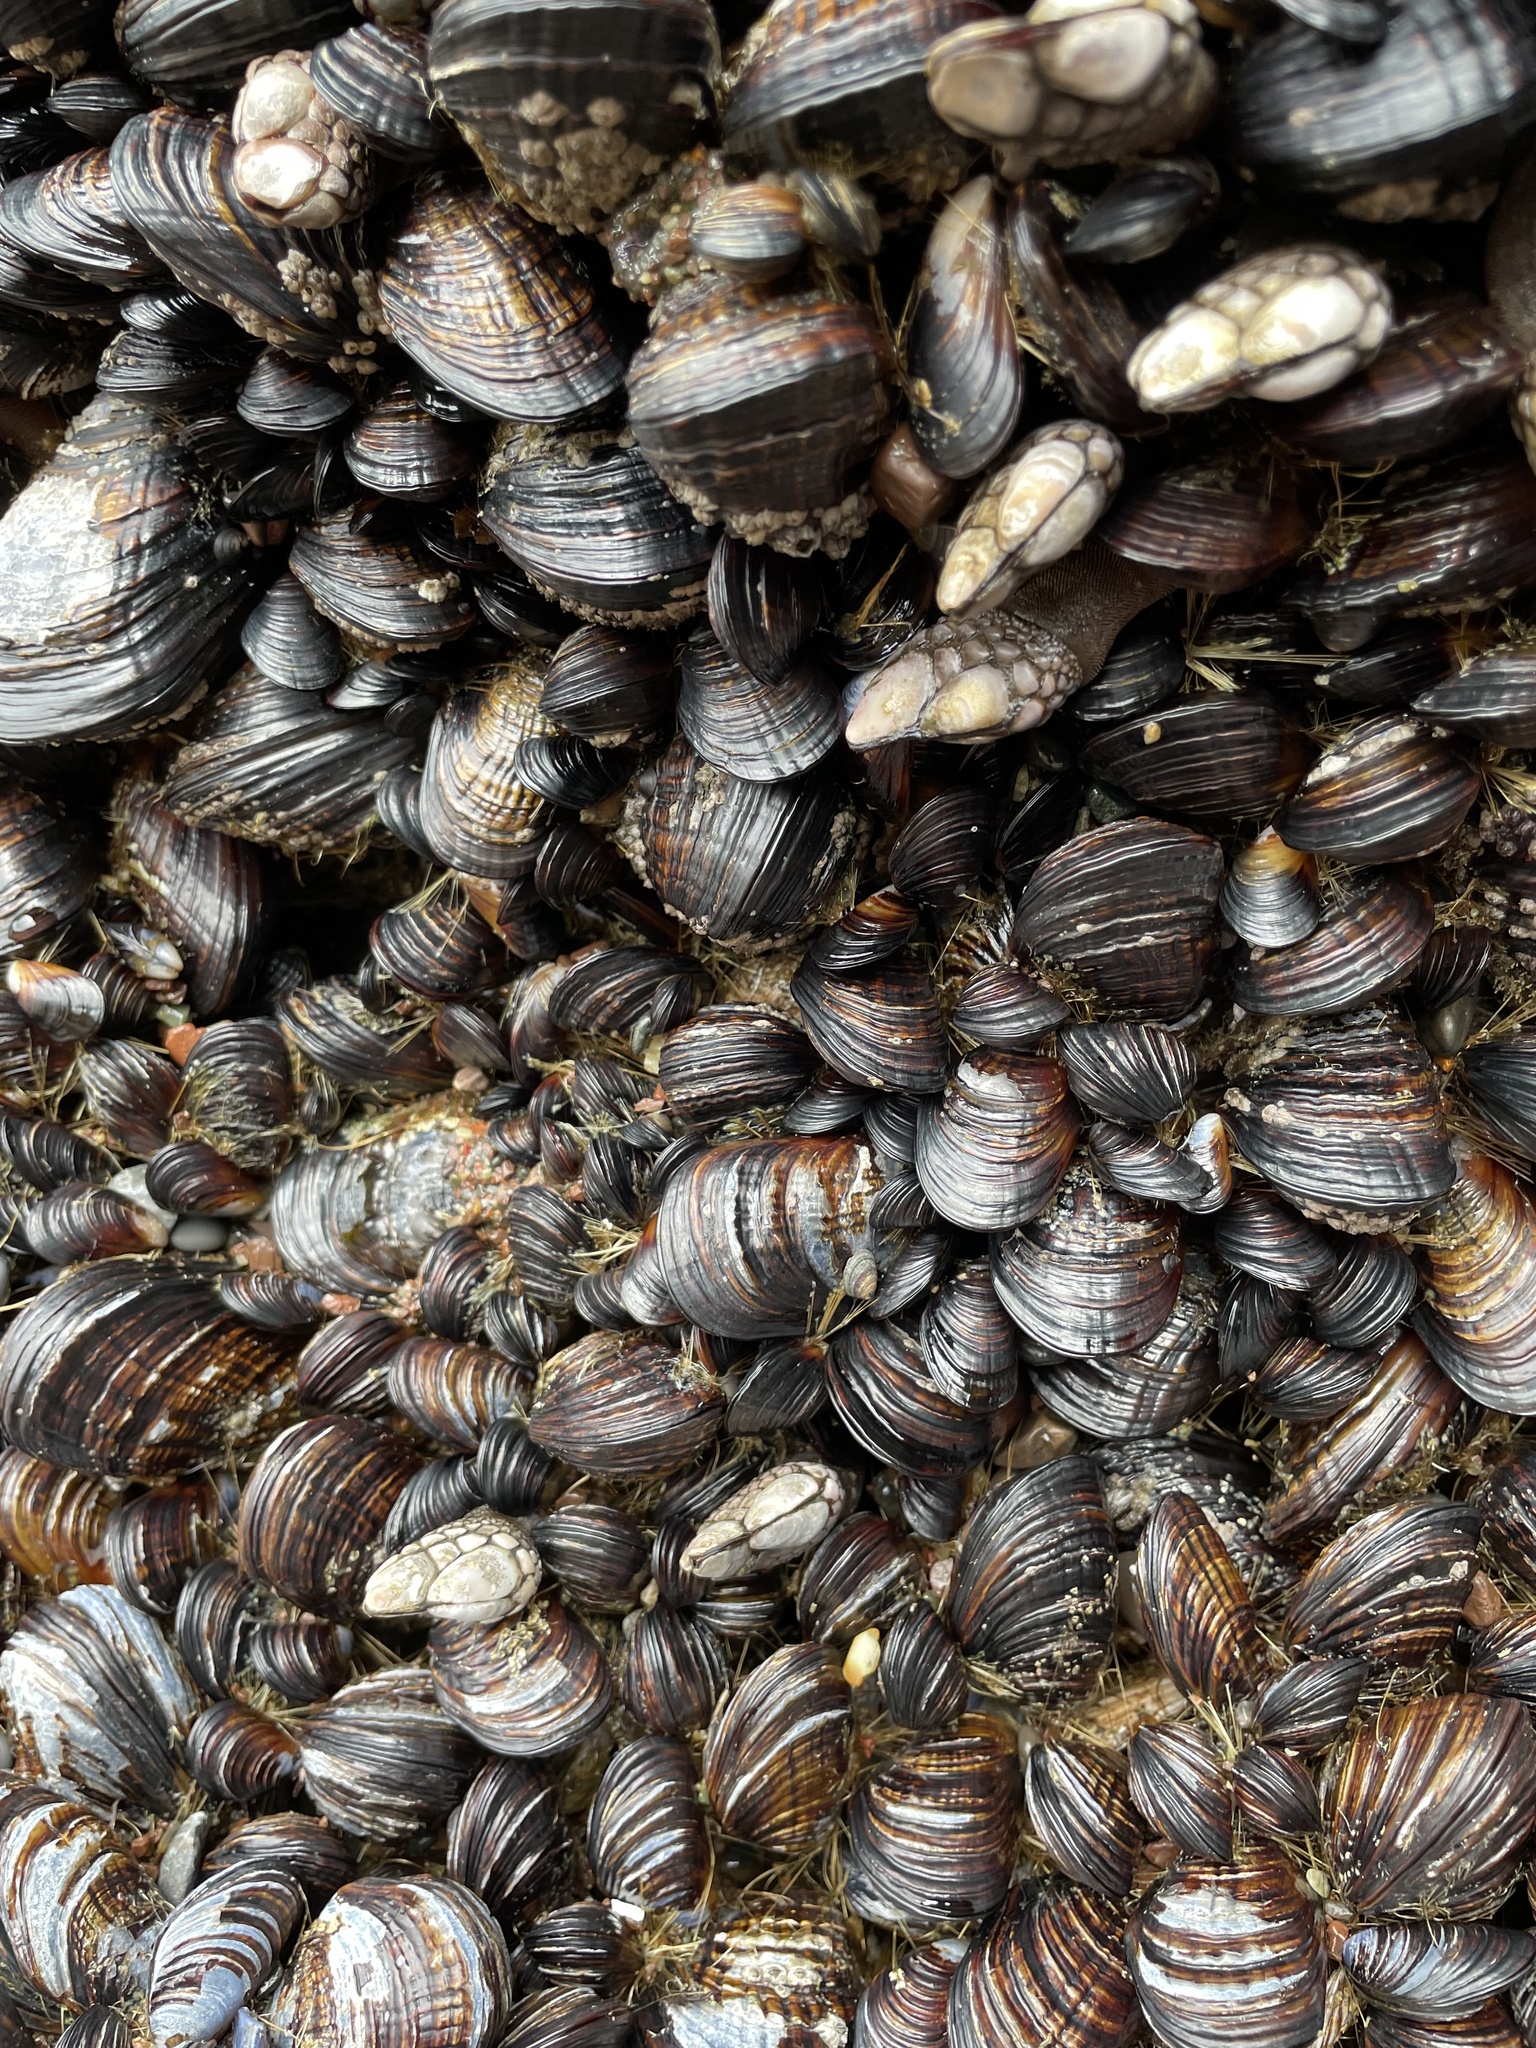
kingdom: Animalia
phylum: Mollusca
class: Bivalvia
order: Mytilida
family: Mytilidae
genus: Mytilus
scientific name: Mytilus californianus
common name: California mussel
